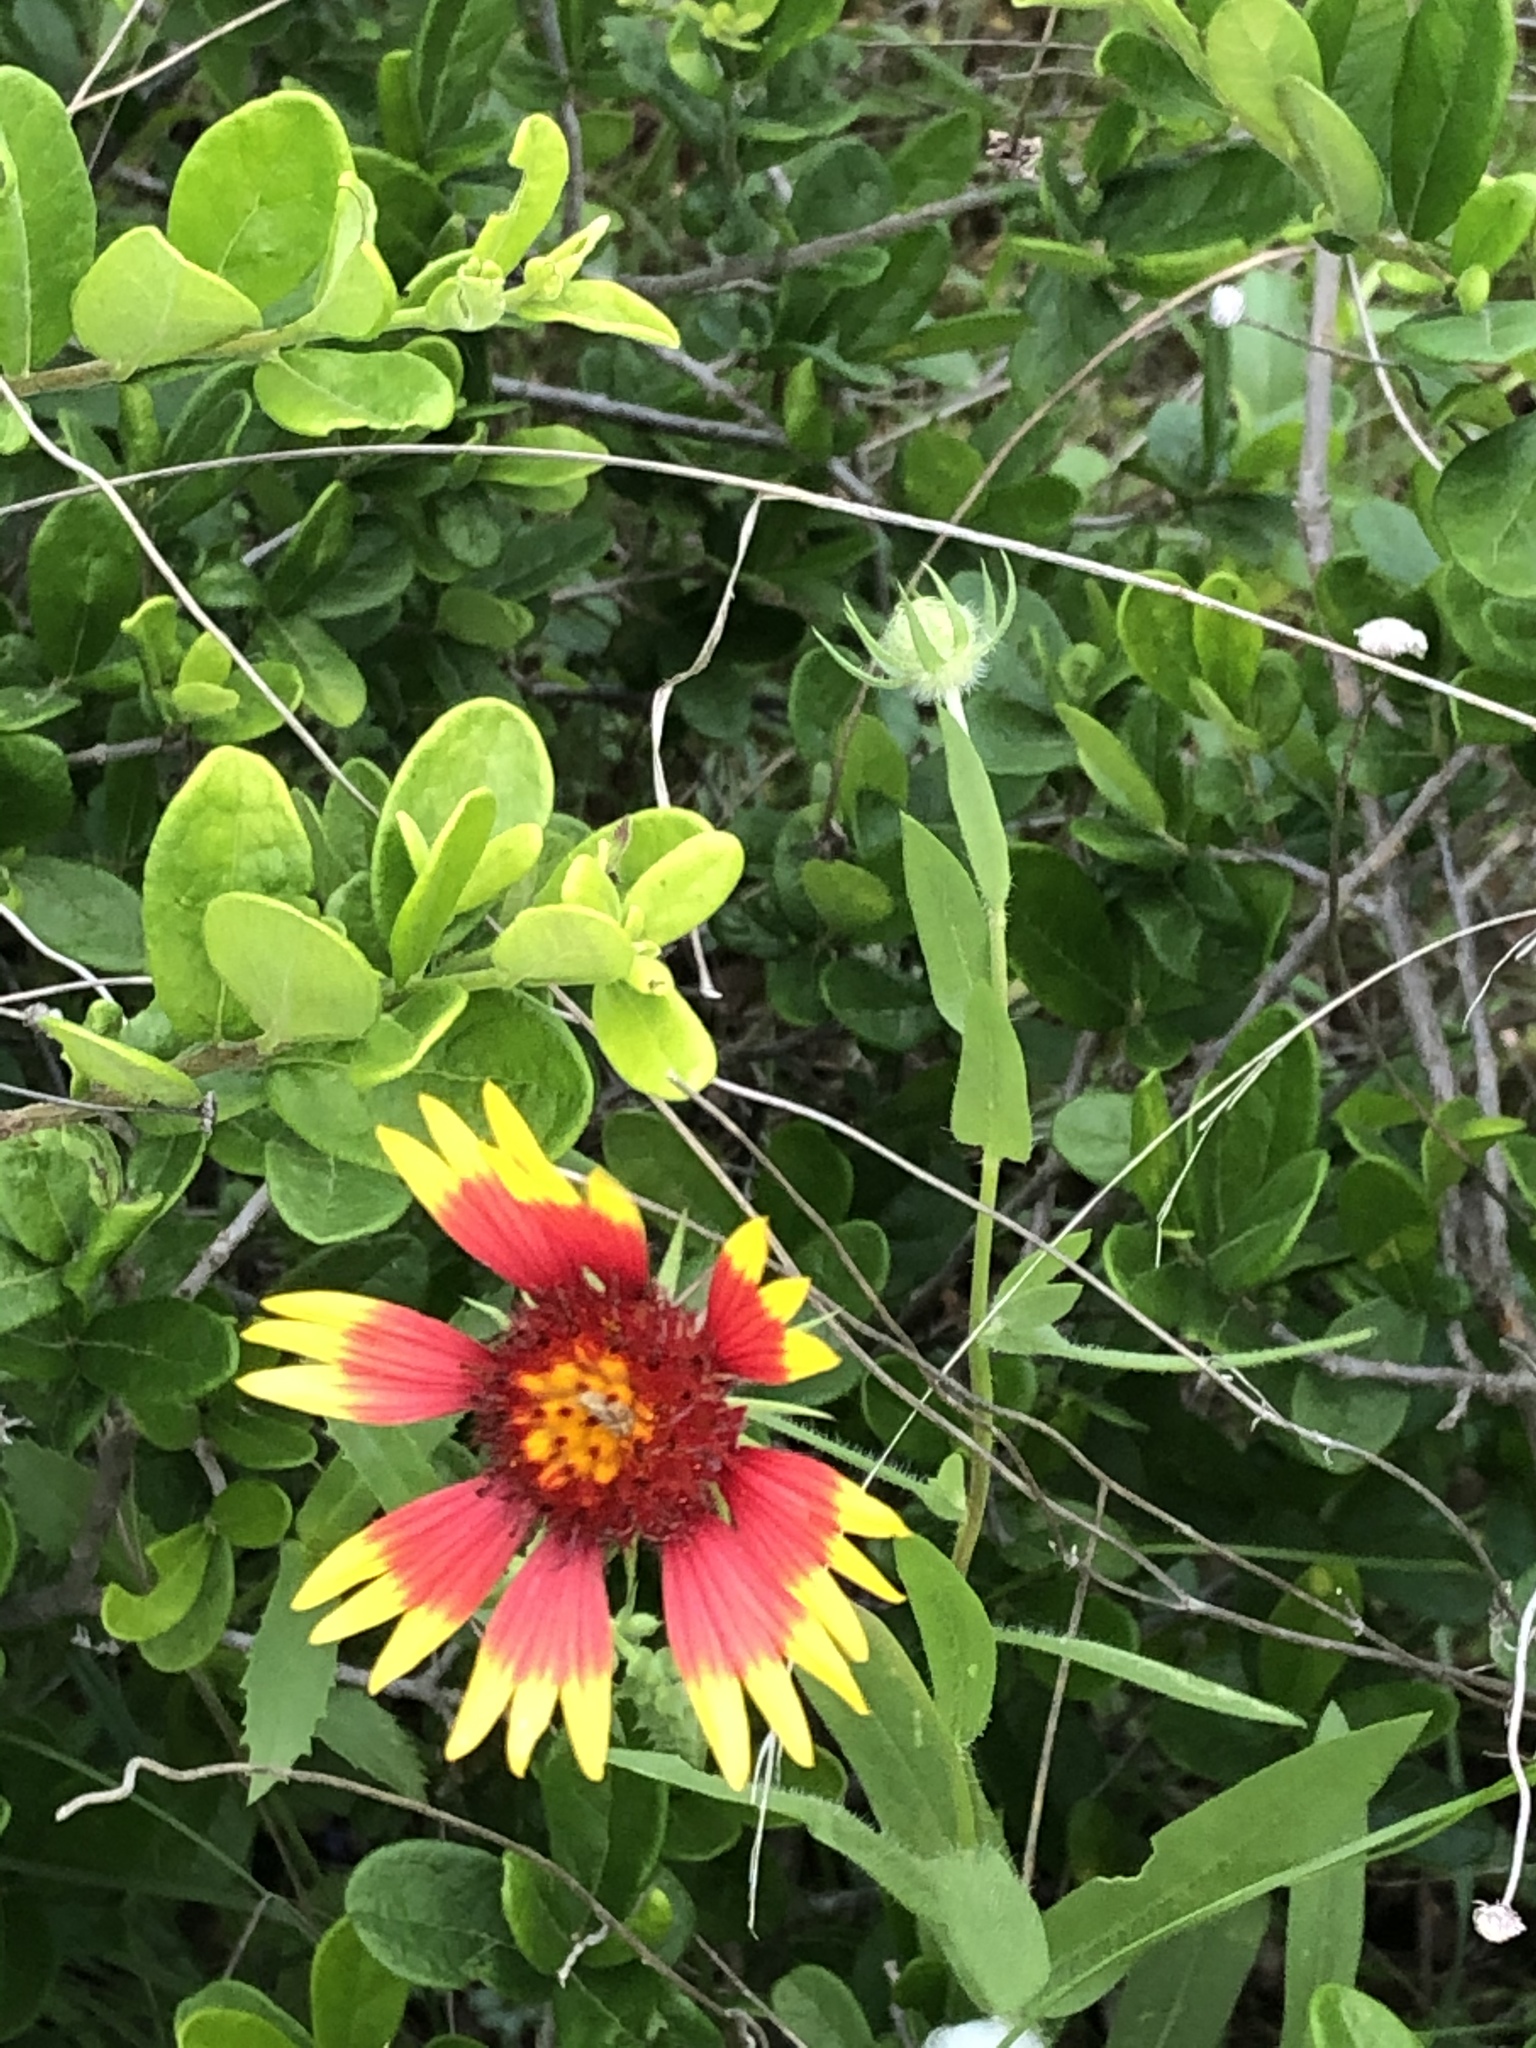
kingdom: Plantae
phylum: Tracheophyta
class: Magnoliopsida
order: Asterales
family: Asteraceae
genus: Gaillardia
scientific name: Gaillardia pulchella
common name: Firewheel
